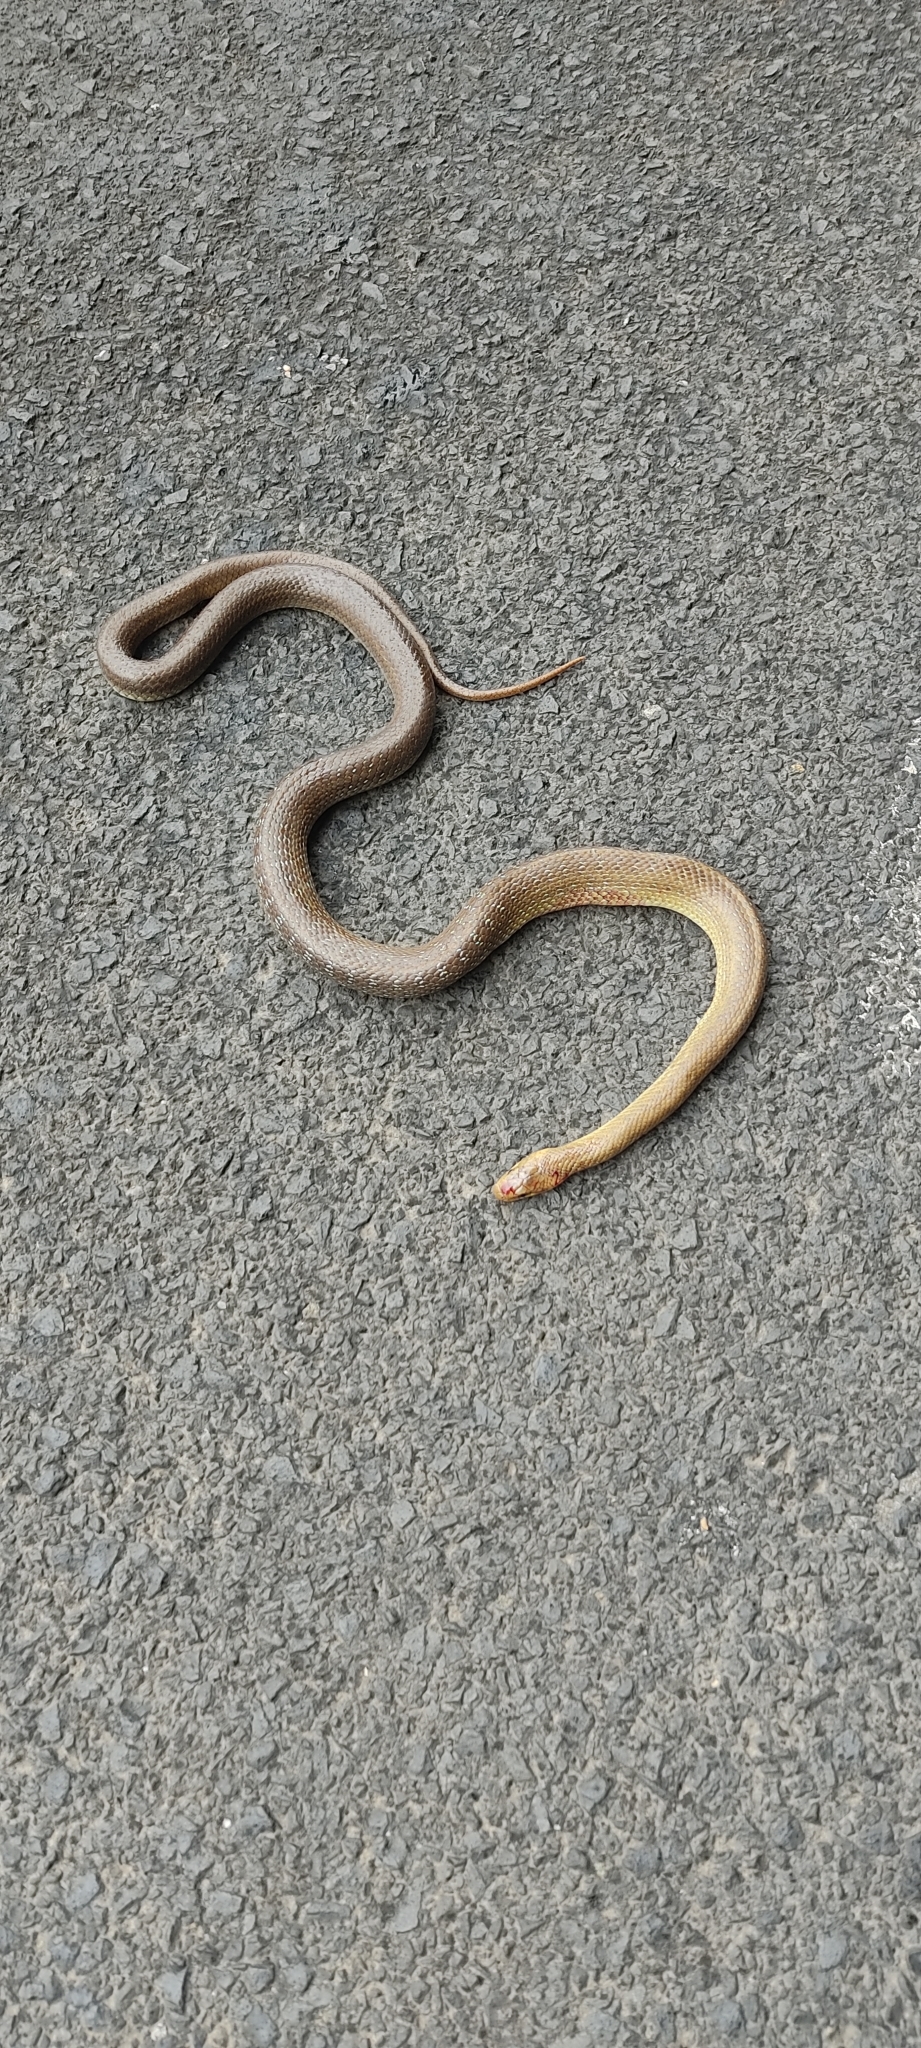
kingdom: Animalia
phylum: Chordata
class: Squamata
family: Colubridae
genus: Zamenis
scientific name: Zamenis longissimus
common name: Aesculapean snake
